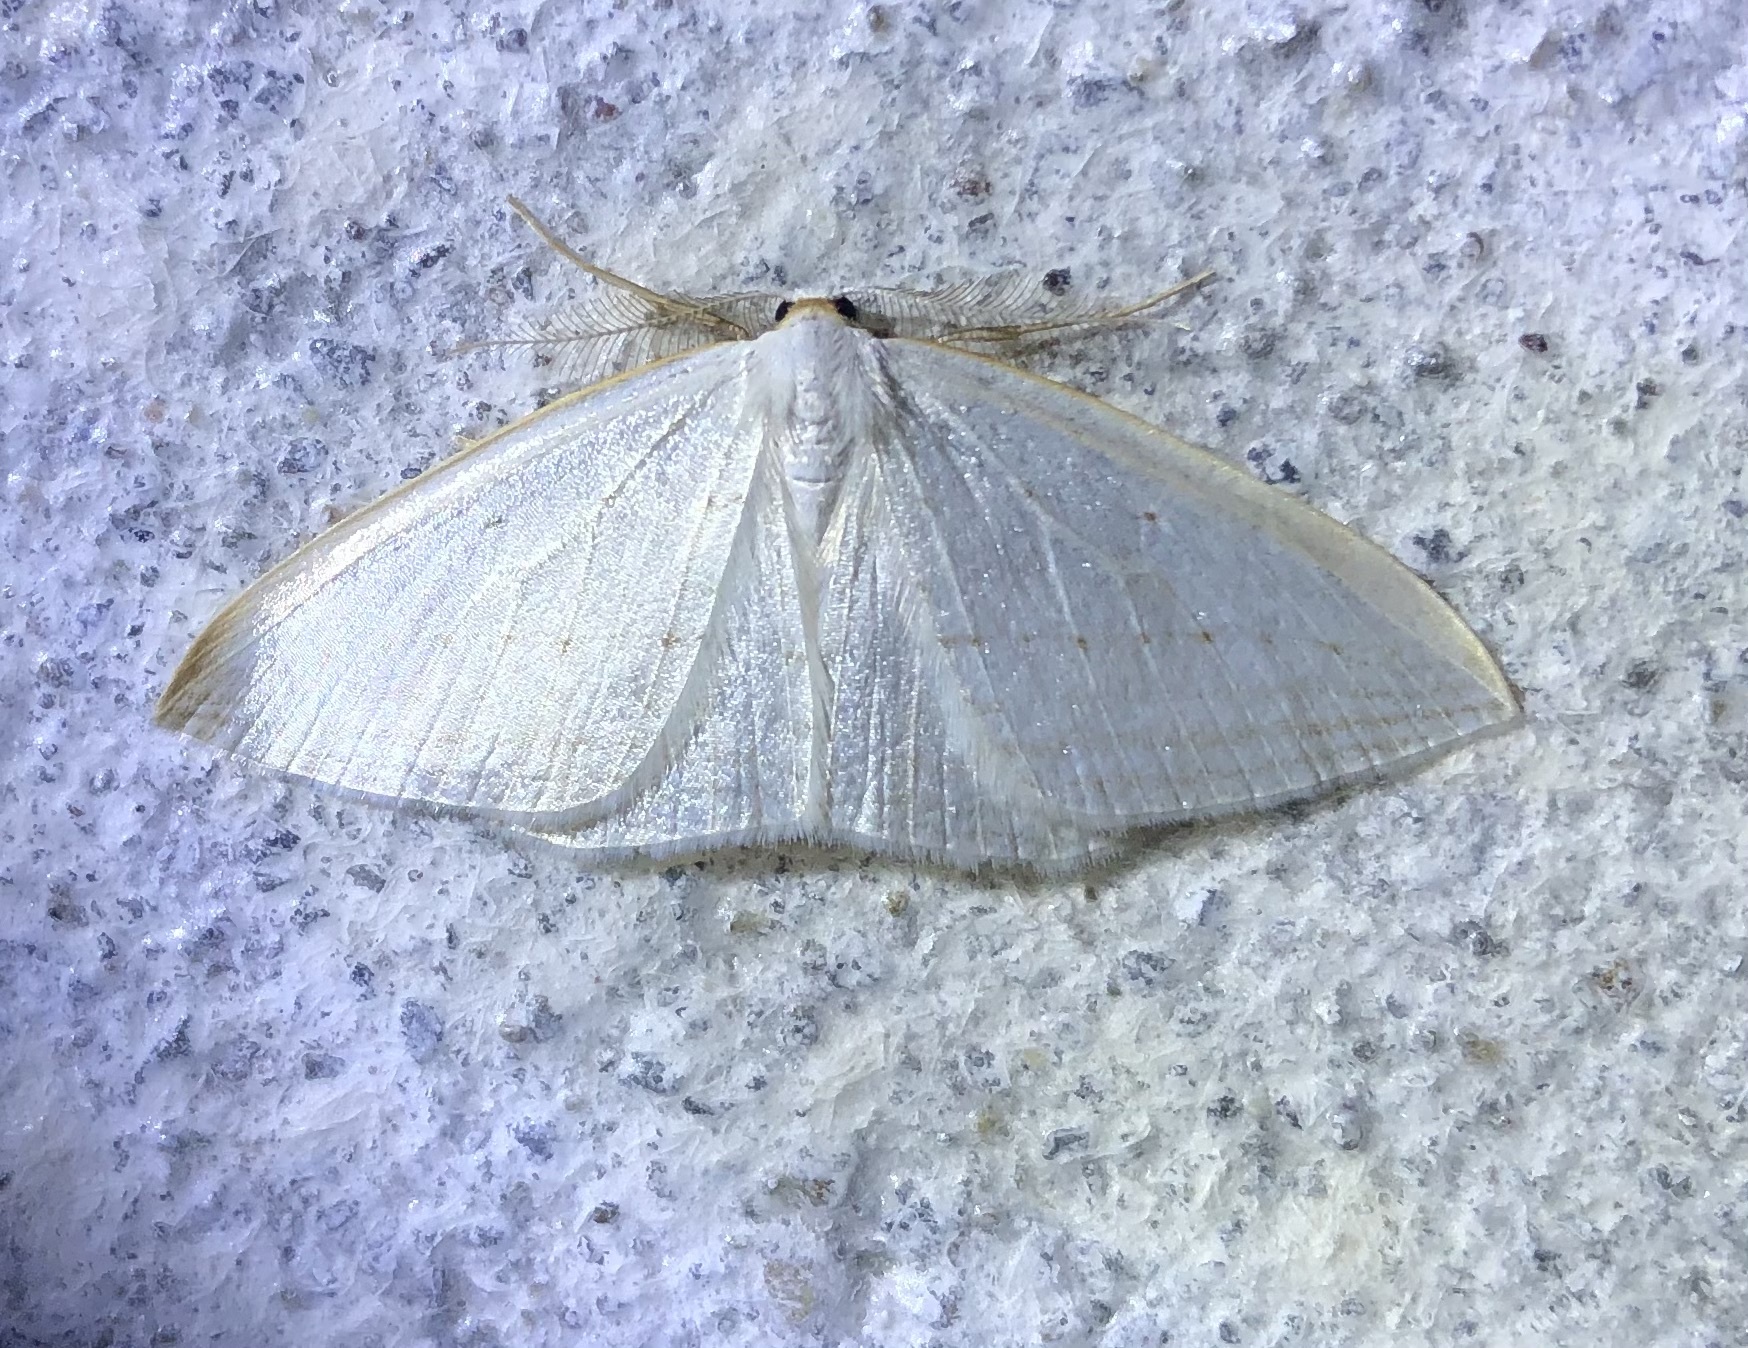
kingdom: Animalia
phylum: Arthropoda
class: Insecta
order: Lepidoptera
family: Geometridae
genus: Orthoclydon
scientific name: Orthoclydon praefectata
